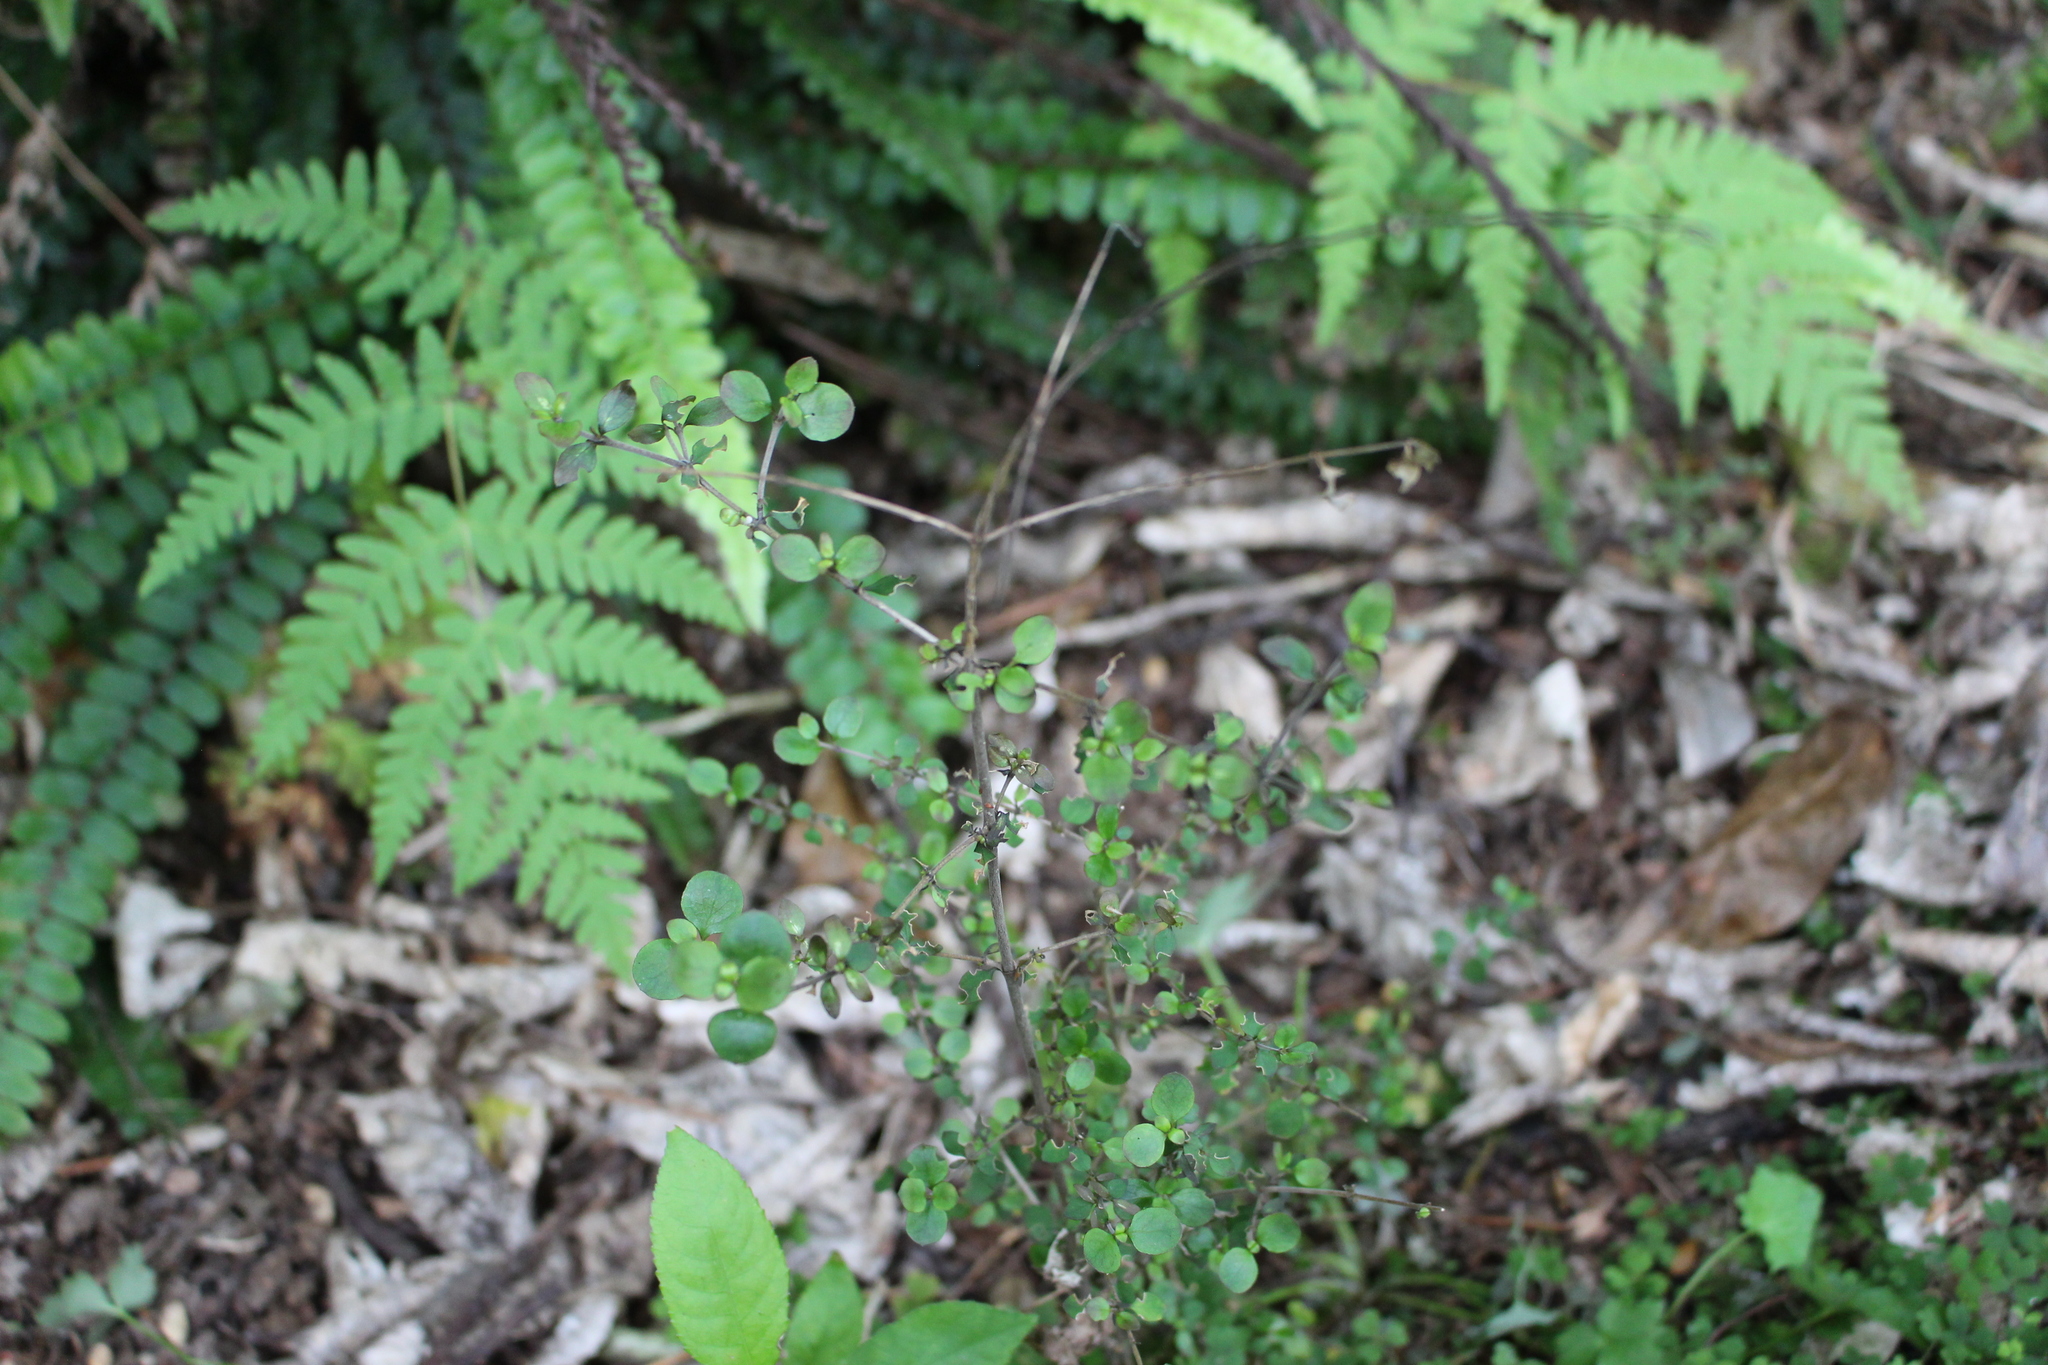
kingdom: Plantae
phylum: Tracheophyta
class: Magnoliopsida
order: Gentianales
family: Rubiaceae
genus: Coprosma
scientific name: Coprosma rhamnoides
